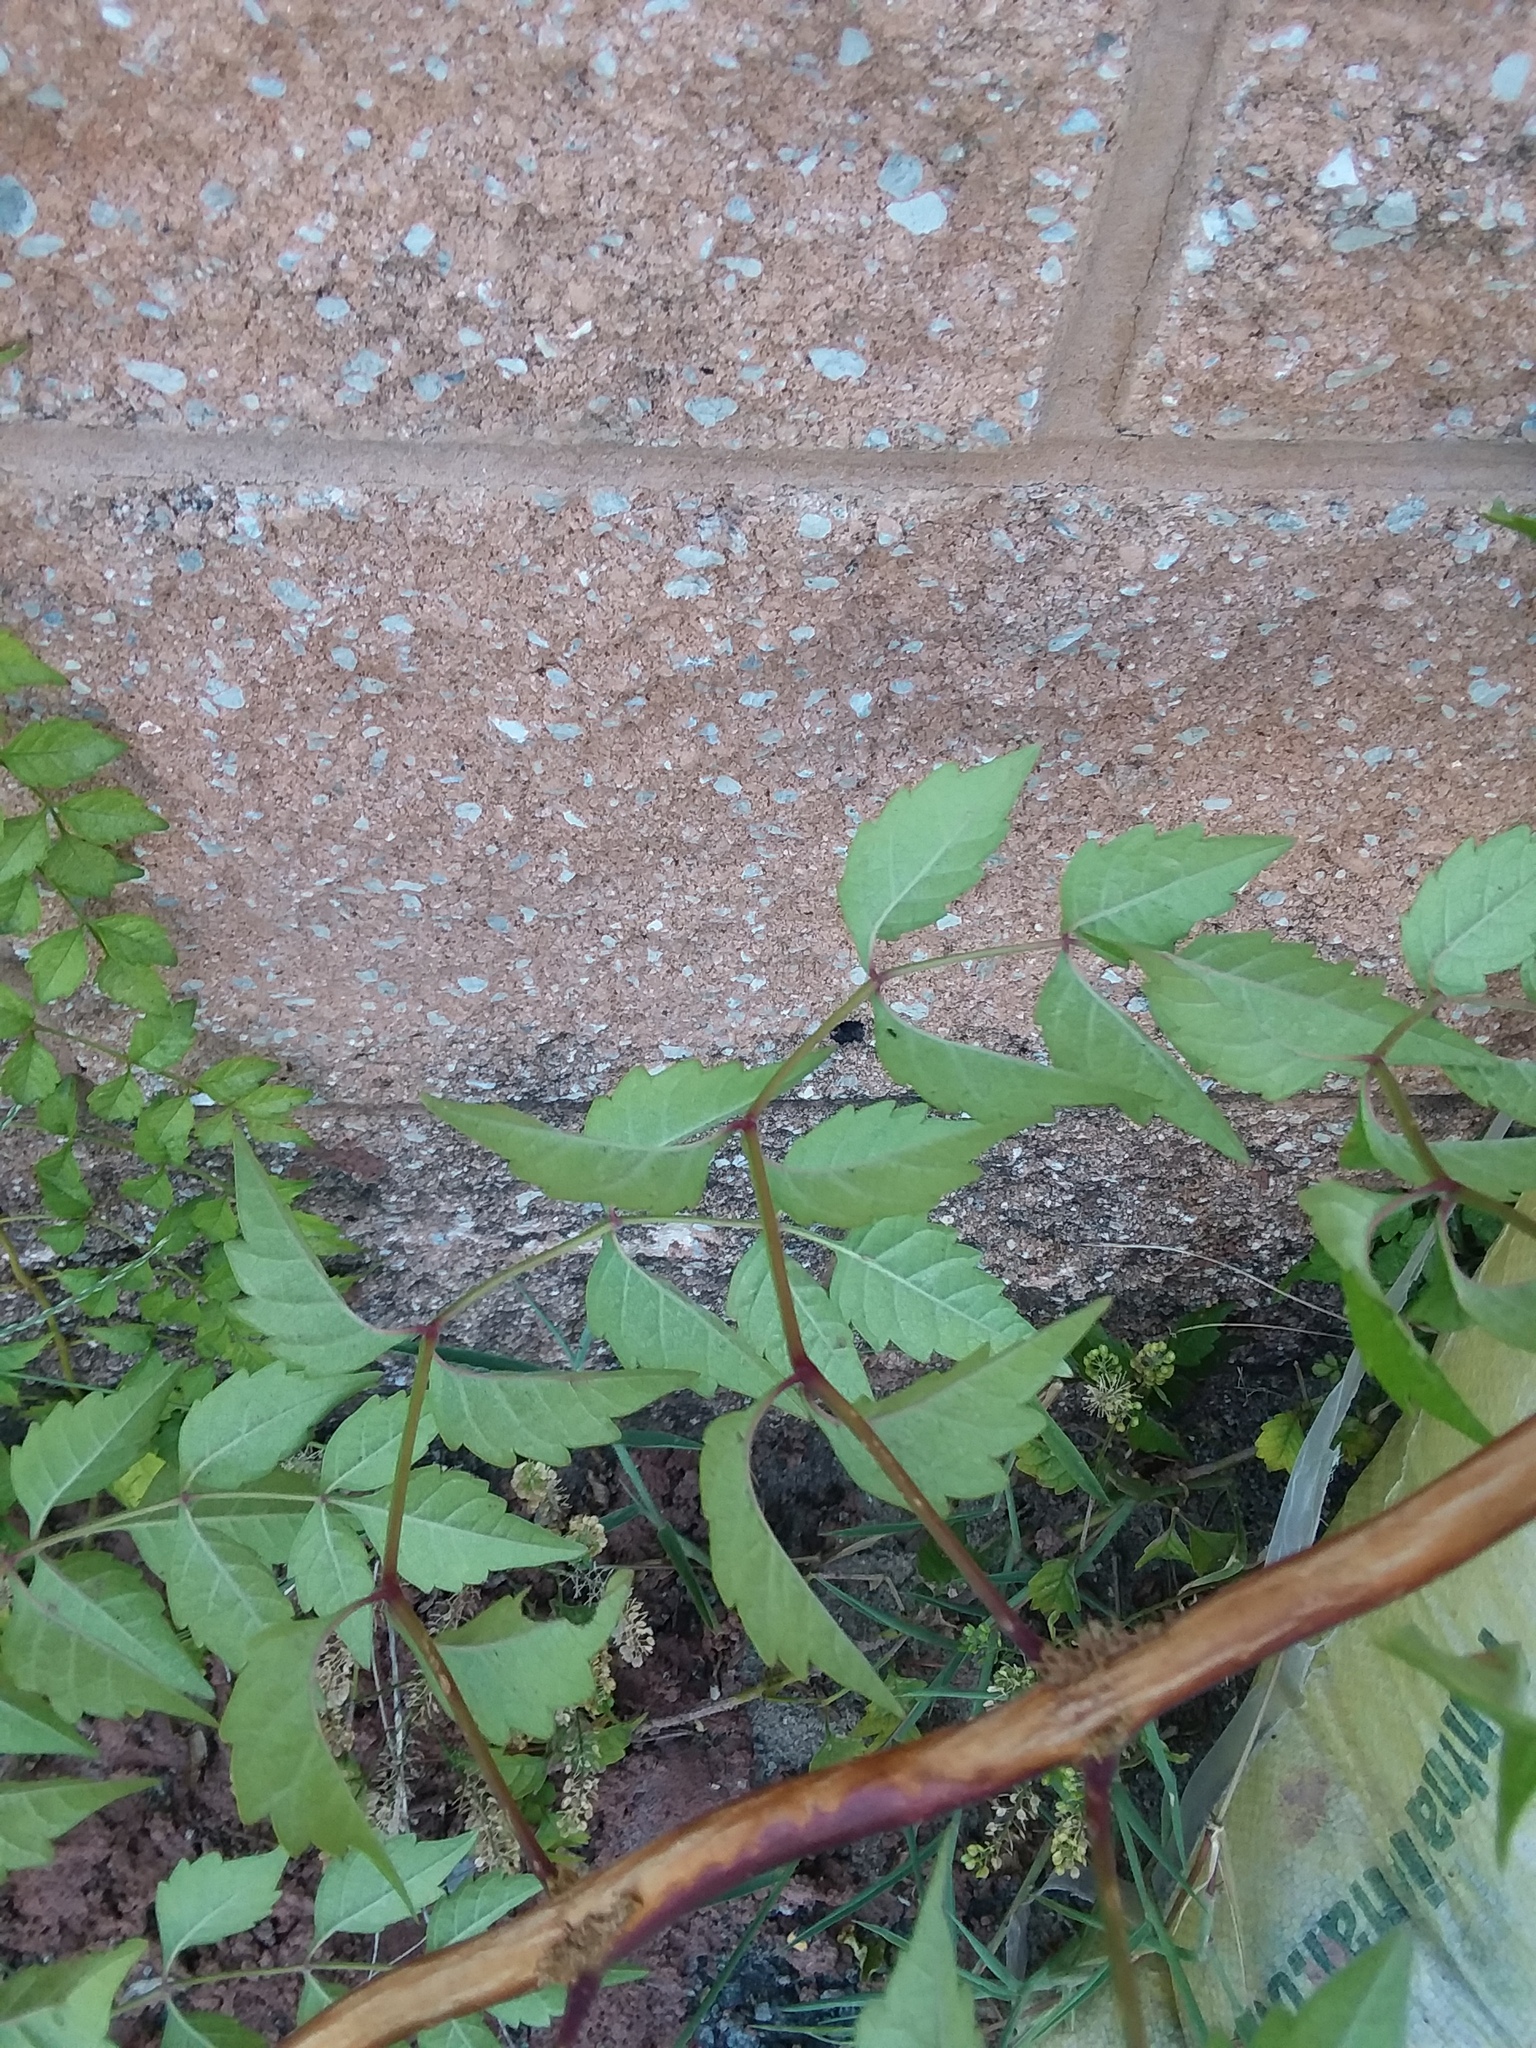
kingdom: Plantae
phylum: Tracheophyta
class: Magnoliopsida
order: Lamiales
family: Bignoniaceae
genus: Campsis
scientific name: Campsis radicans
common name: Trumpet-creeper
